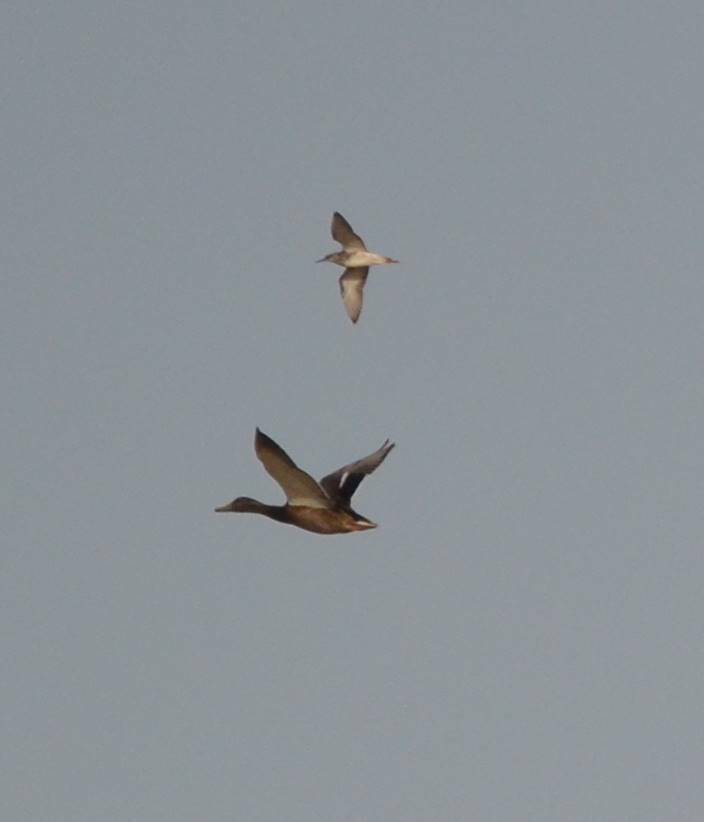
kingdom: Animalia
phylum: Chordata
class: Aves
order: Anseriformes
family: Anatidae
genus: Anas
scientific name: Anas platyrhynchos
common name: Mallard
